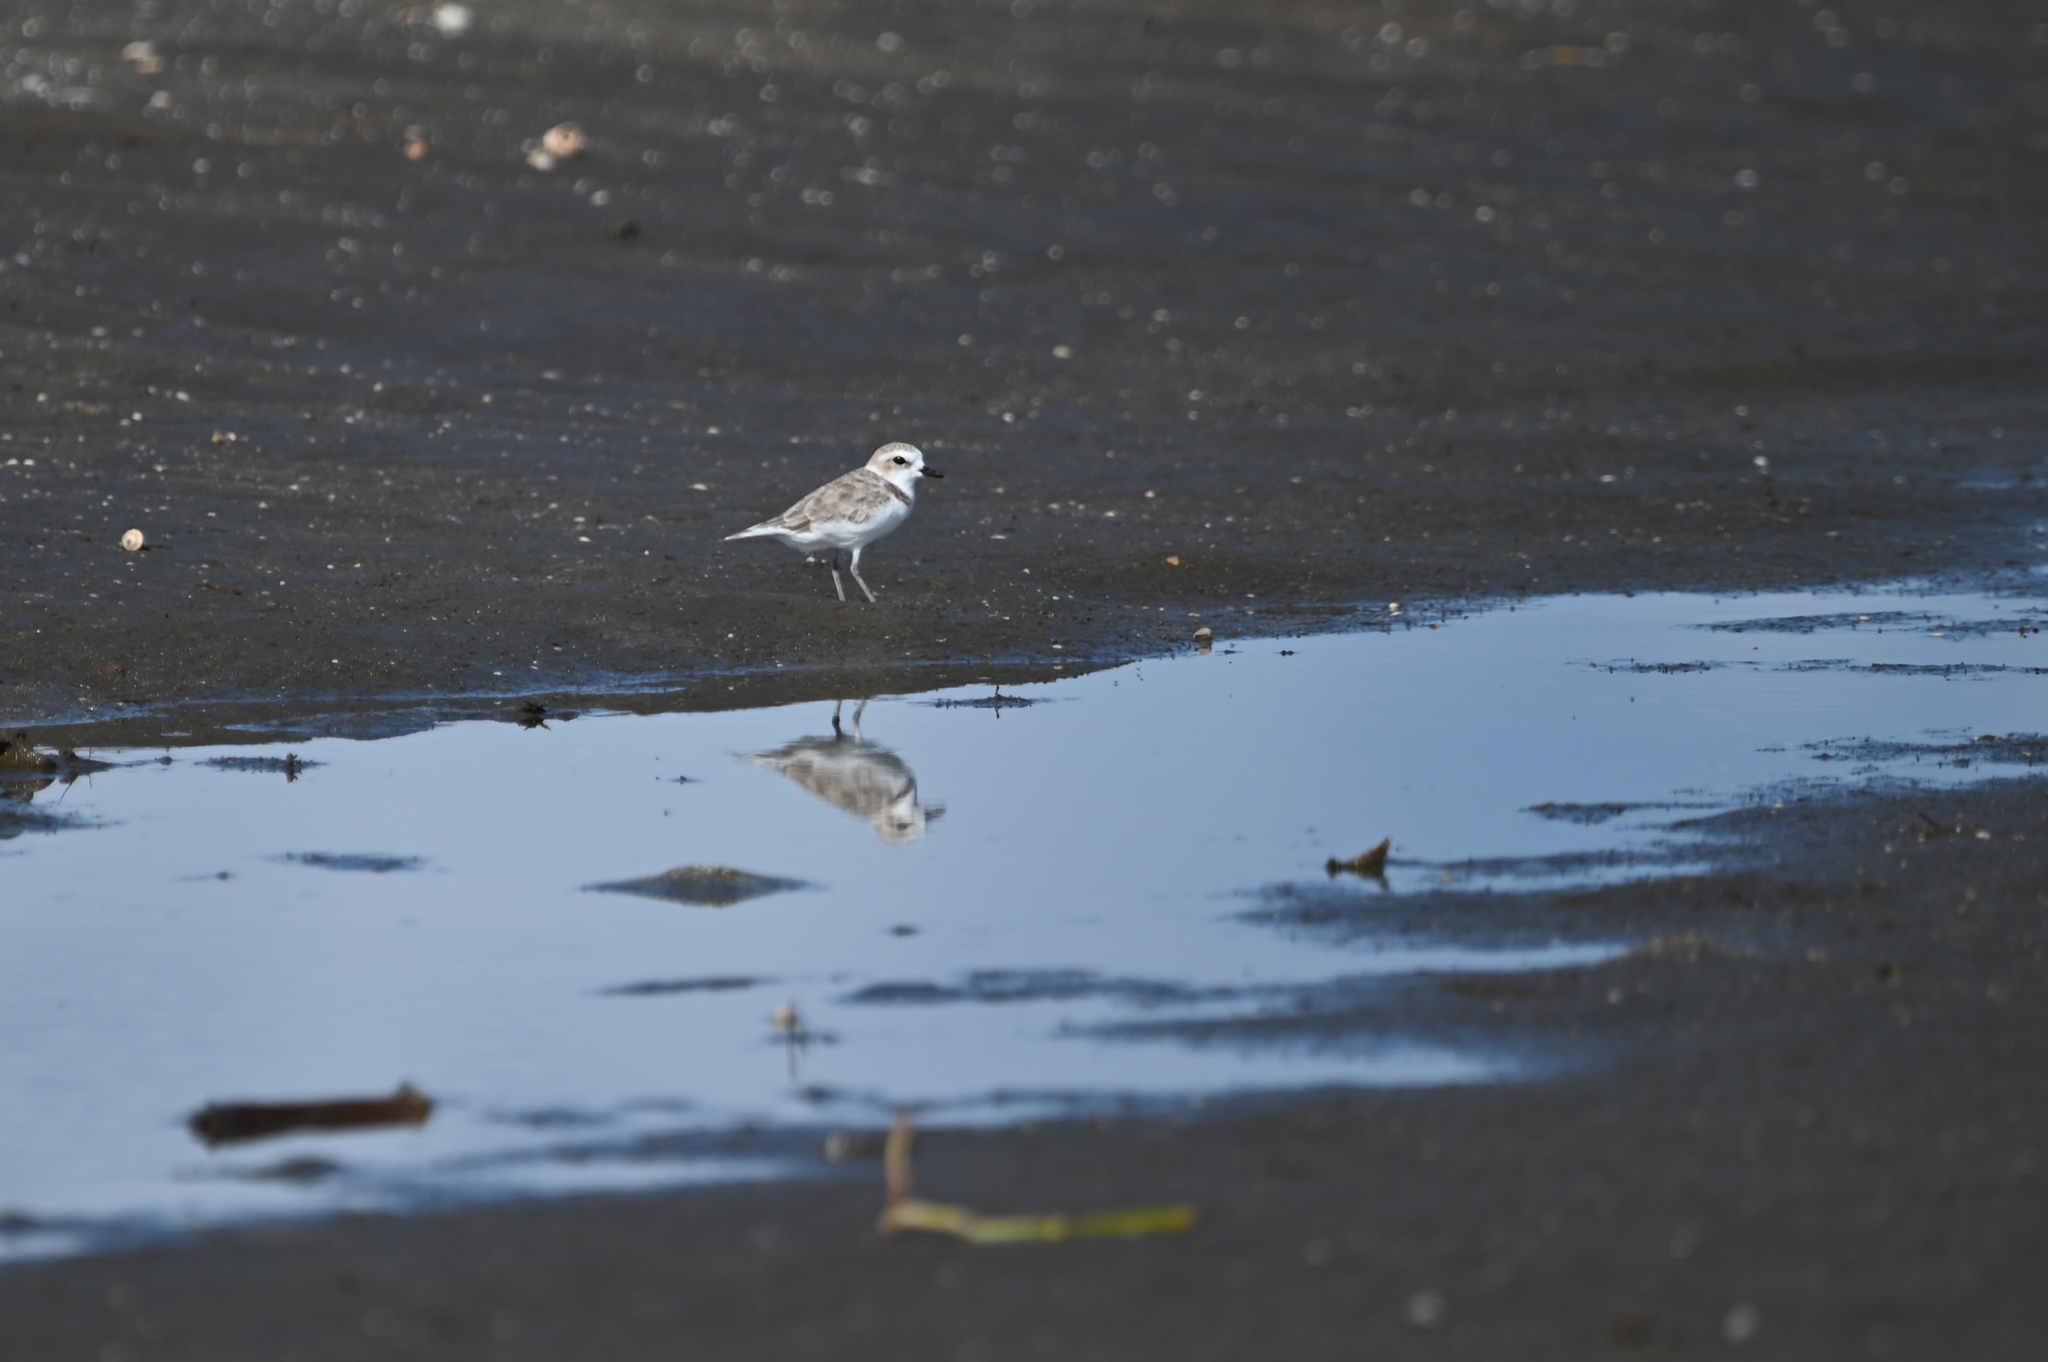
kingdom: Animalia
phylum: Chordata
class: Aves
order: Charadriiformes
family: Charadriidae
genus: Anarhynchus
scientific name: Anarhynchus
